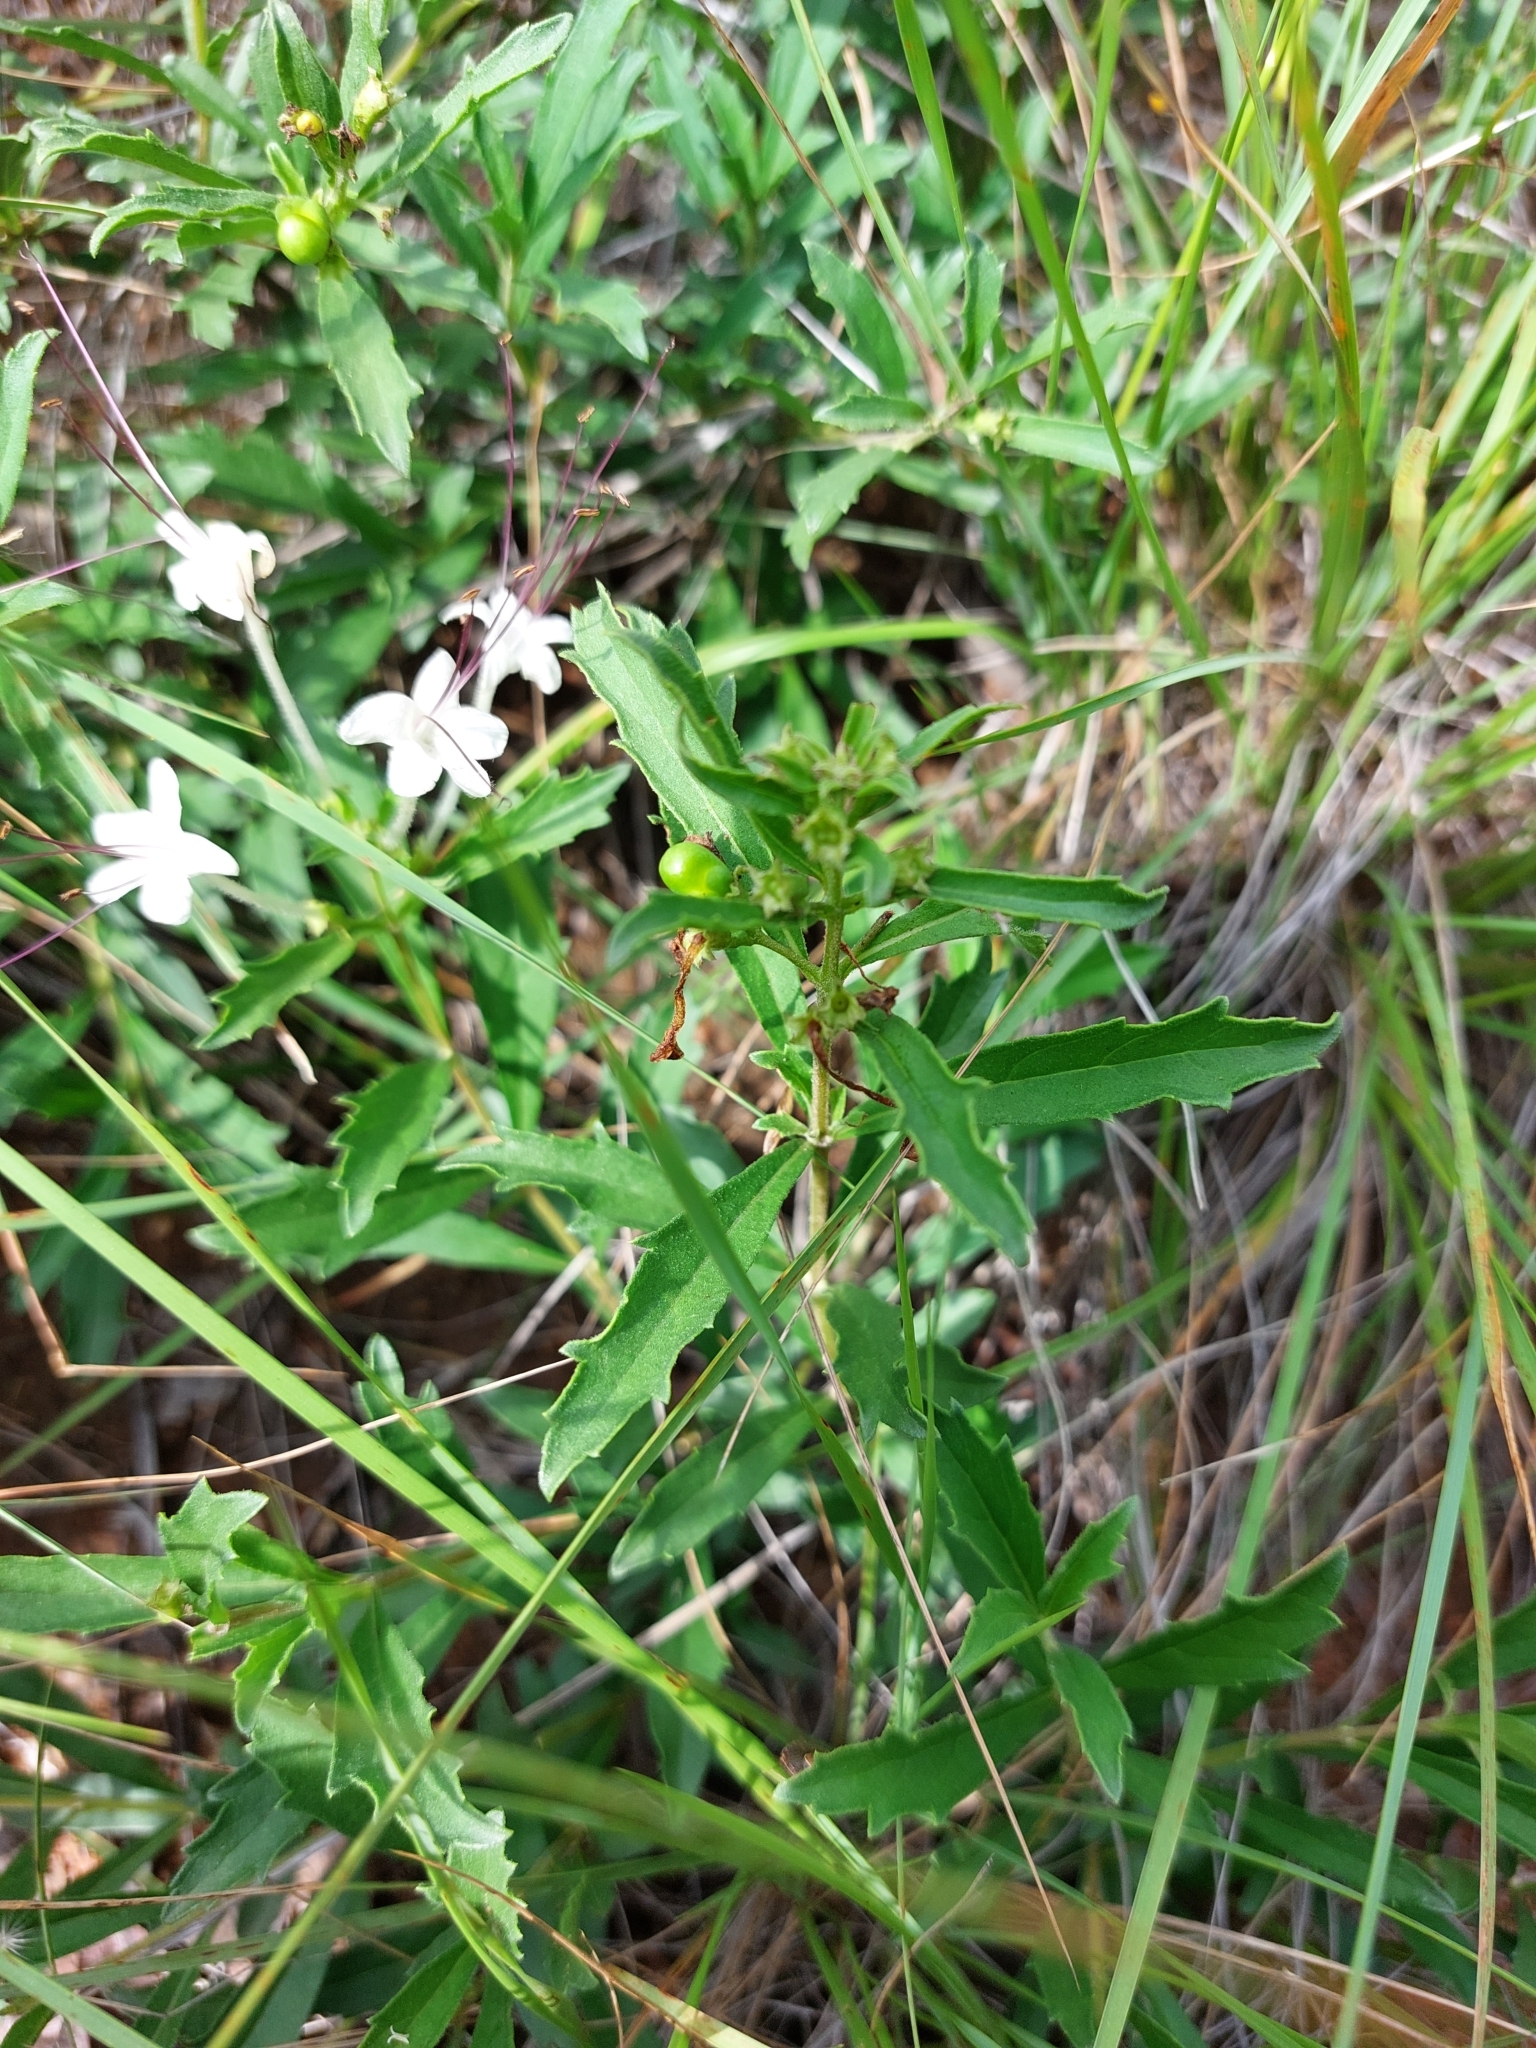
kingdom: Plantae
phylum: Tracheophyta
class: Magnoliopsida
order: Lamiales
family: Lamiaceae
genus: Clerodendrum
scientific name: Clerodendrum ternatum
